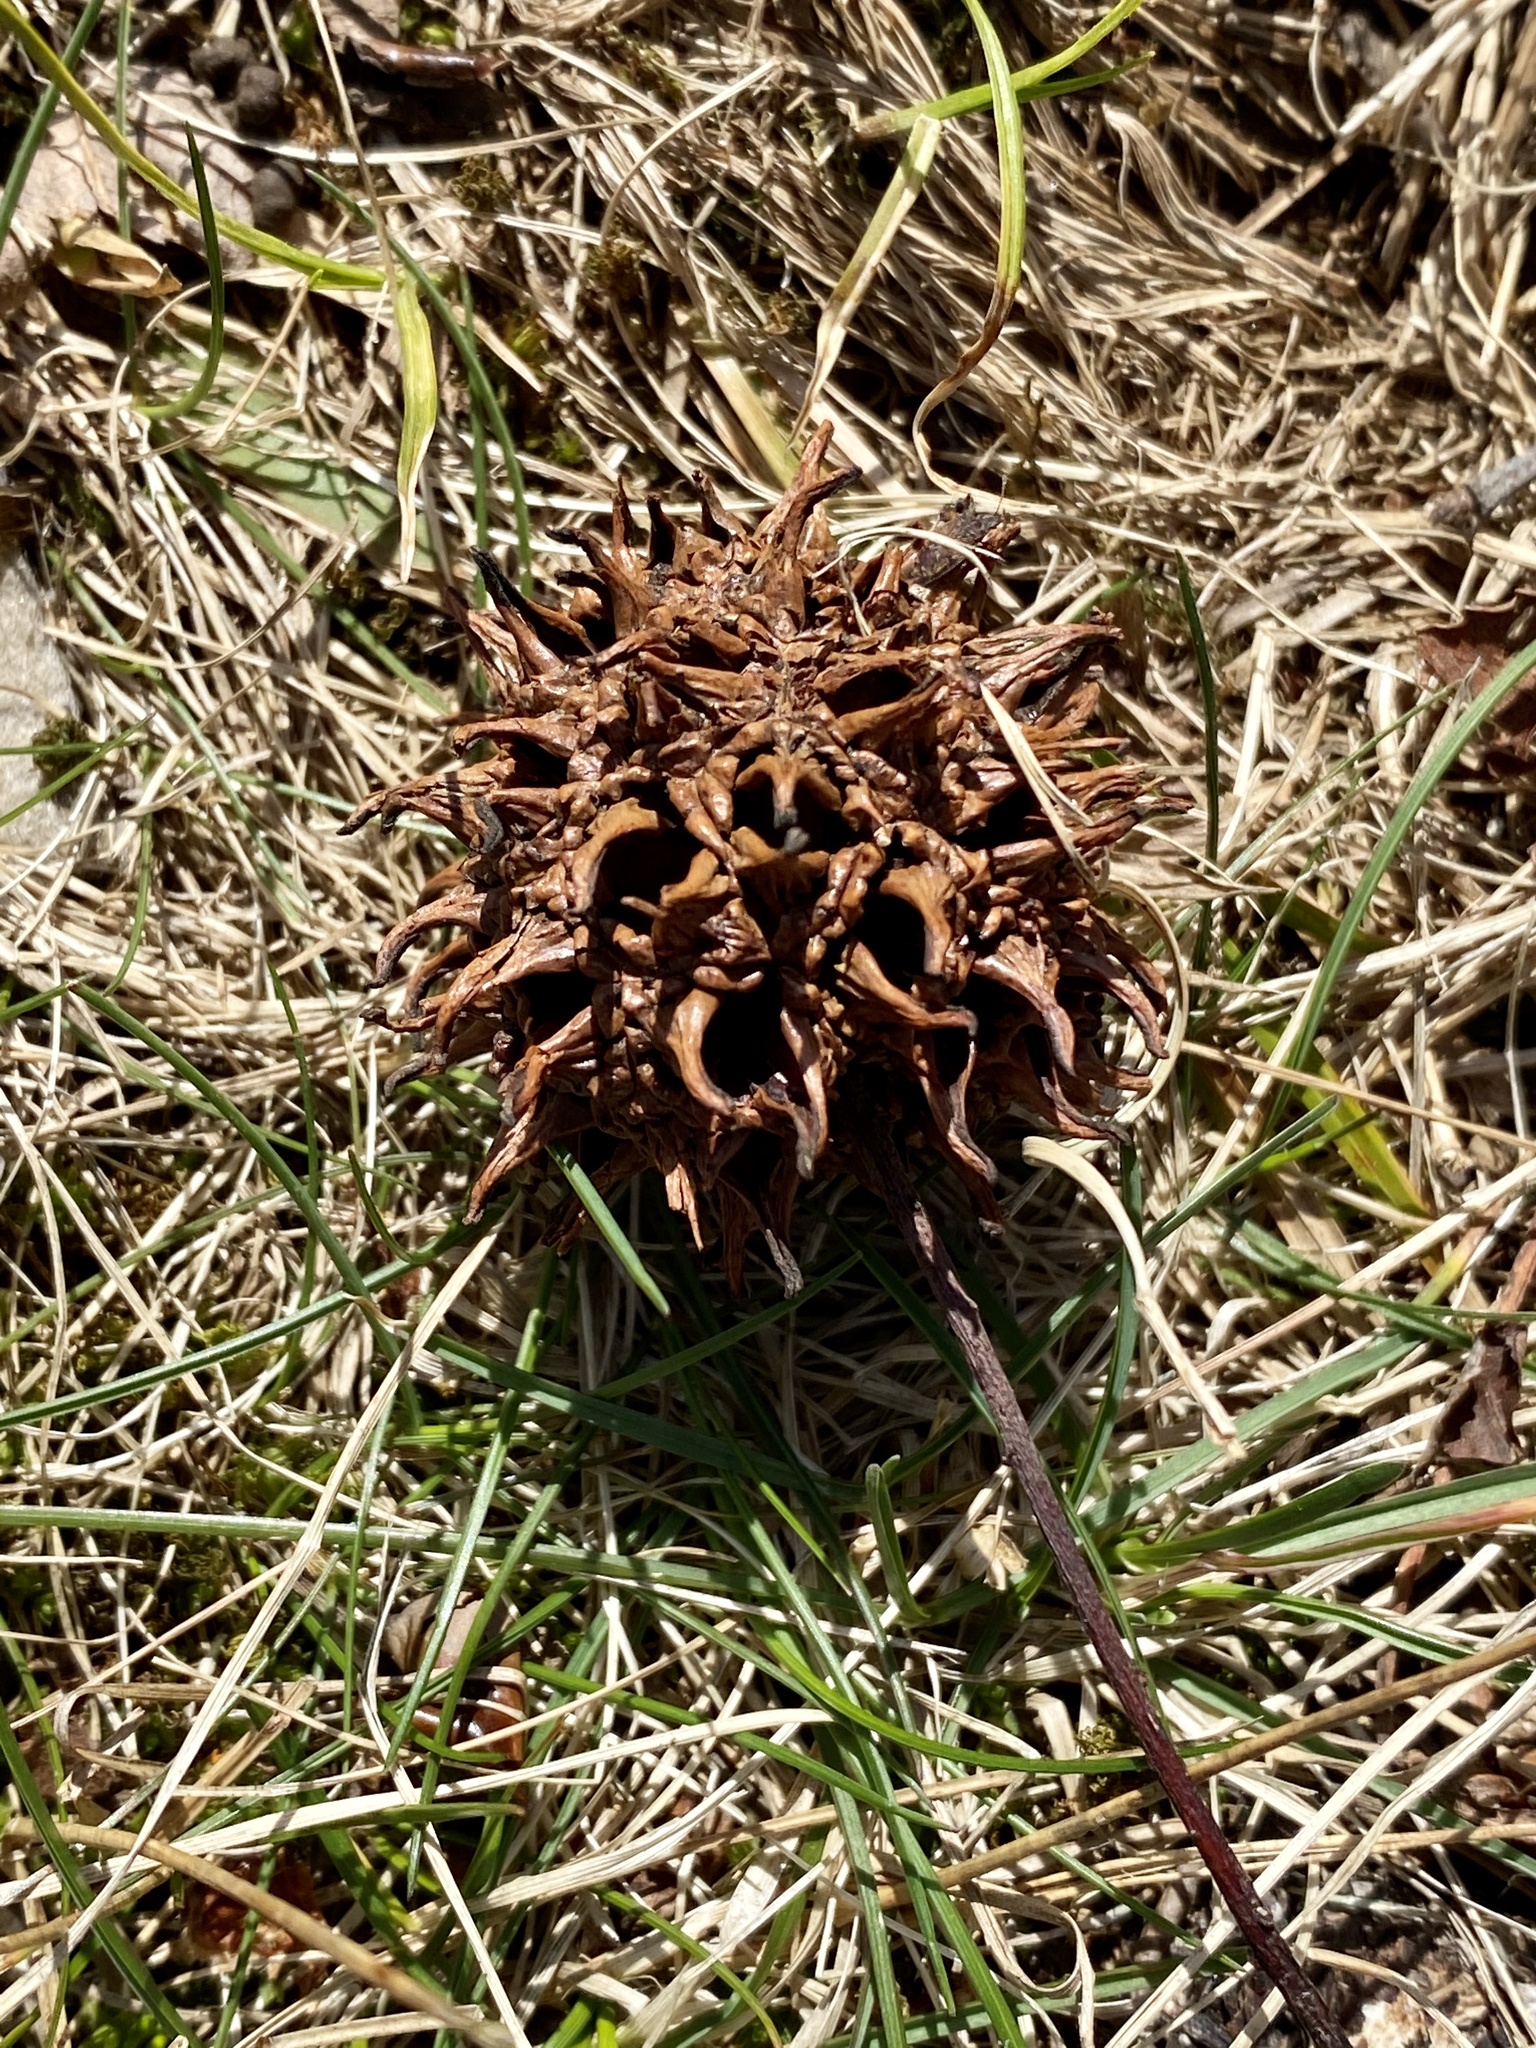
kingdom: Plantae
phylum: Tracheophyta
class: Magnoliopsida
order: Saxifragales
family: Altingiaceae
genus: Liquidambar
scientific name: Liquidambar styraciflua
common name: Sweet gum
